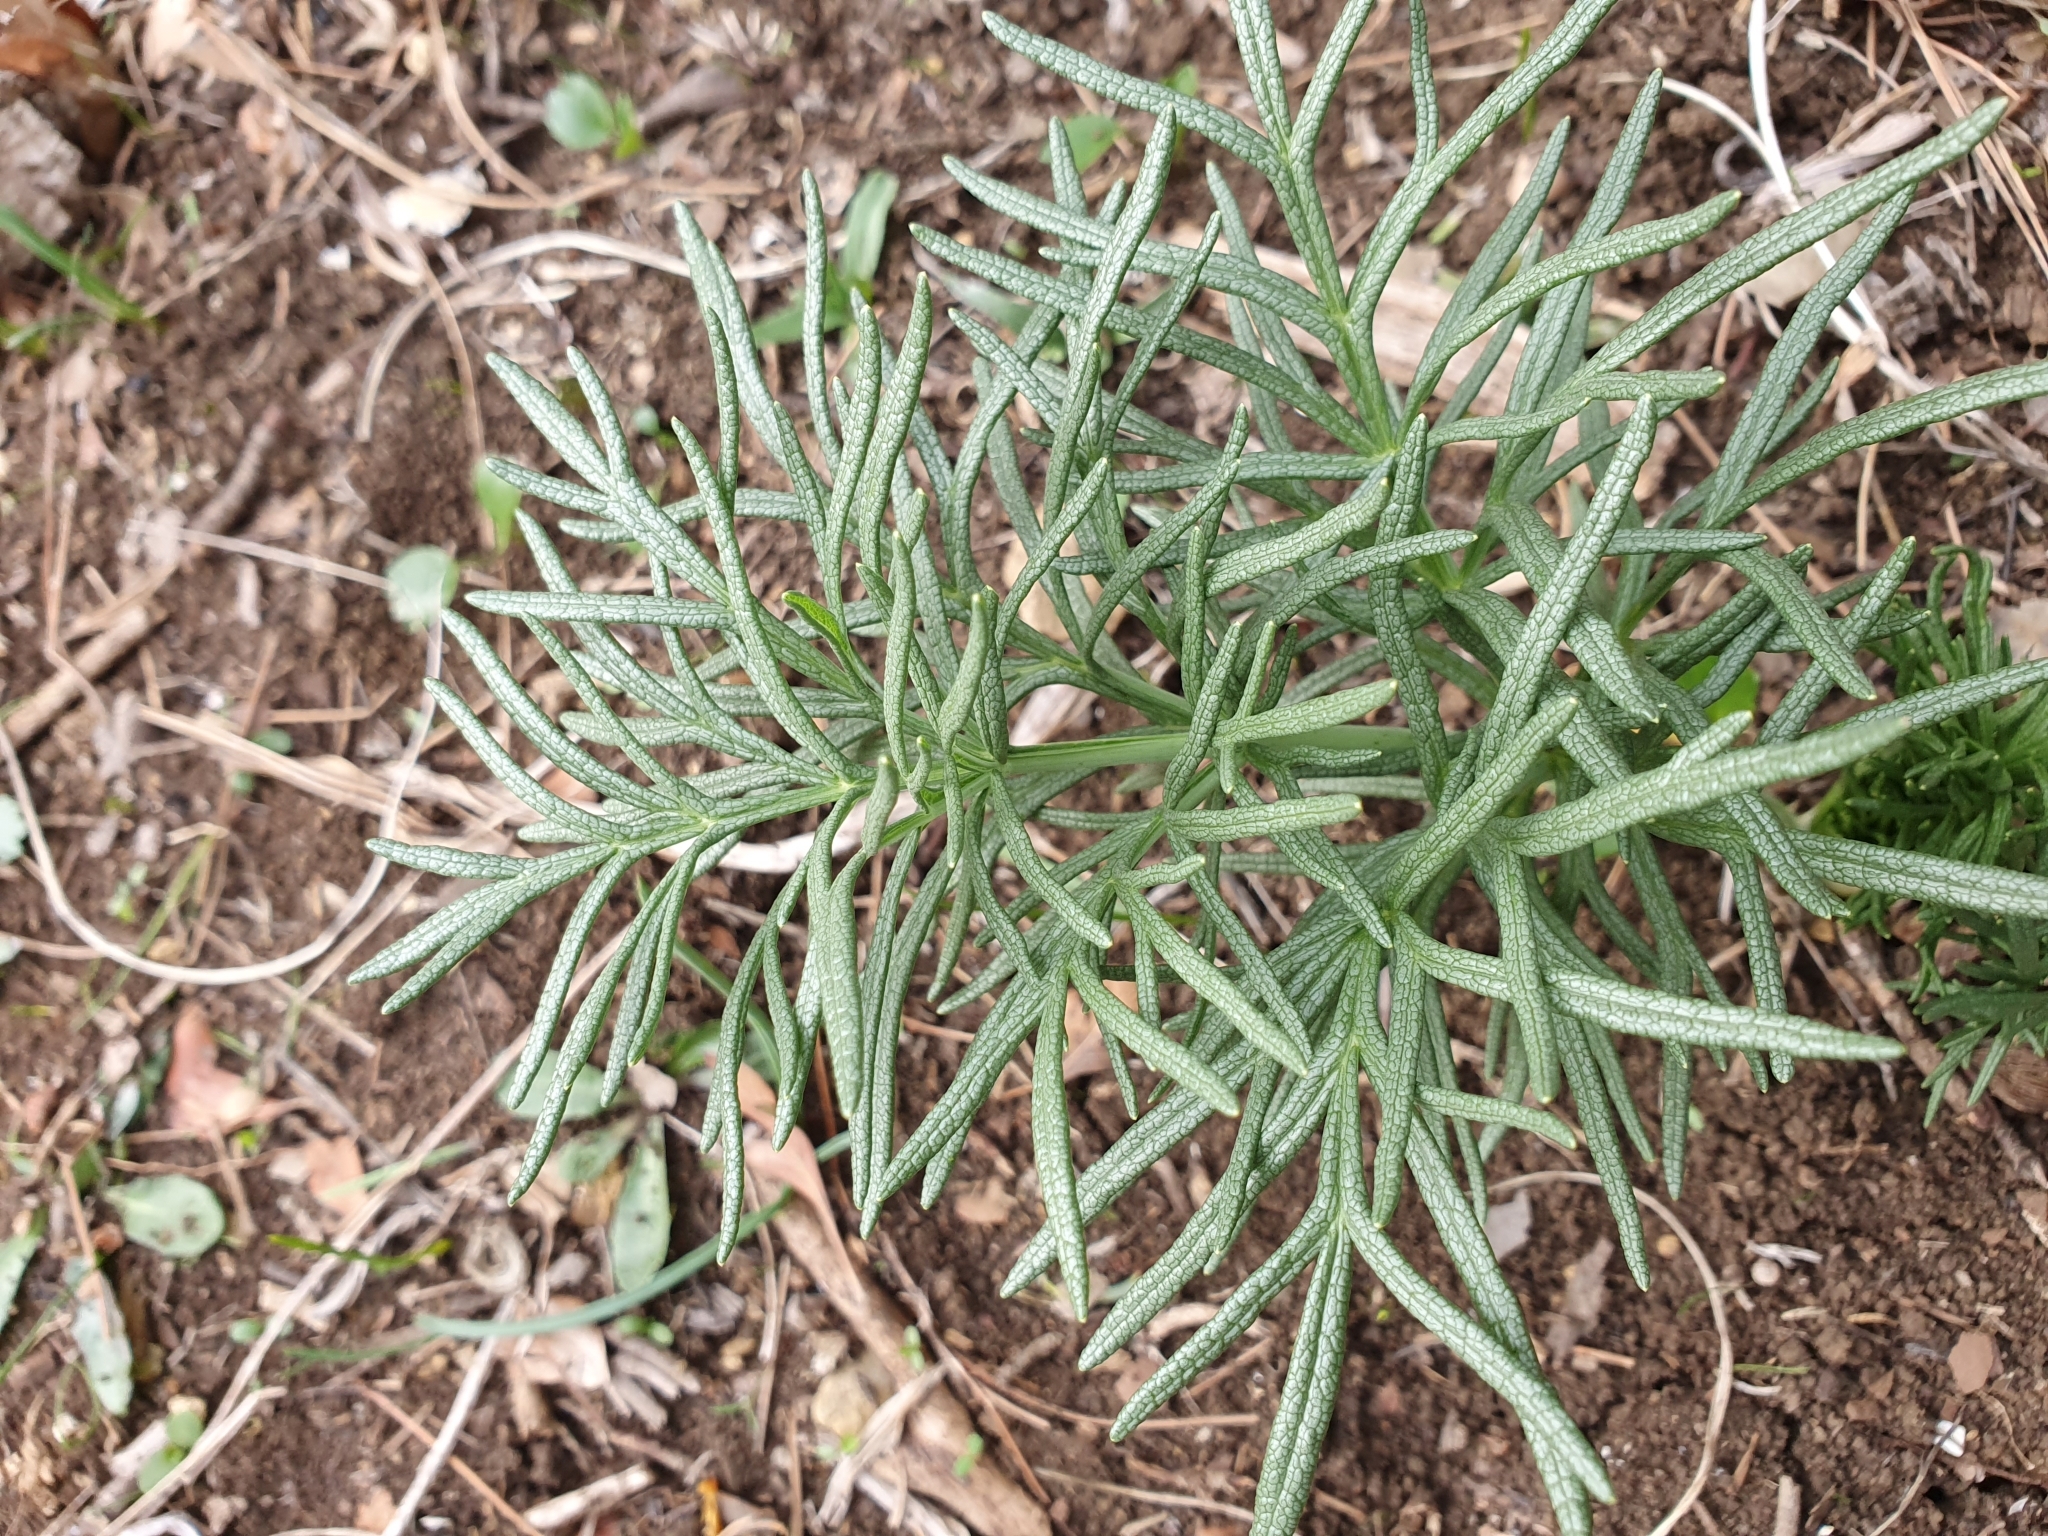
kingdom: Plantae
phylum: Tracheophyta
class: Magnoliopsida
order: Apiales
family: Apiaceae
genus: Thapsia
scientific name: Thapsia garganica
